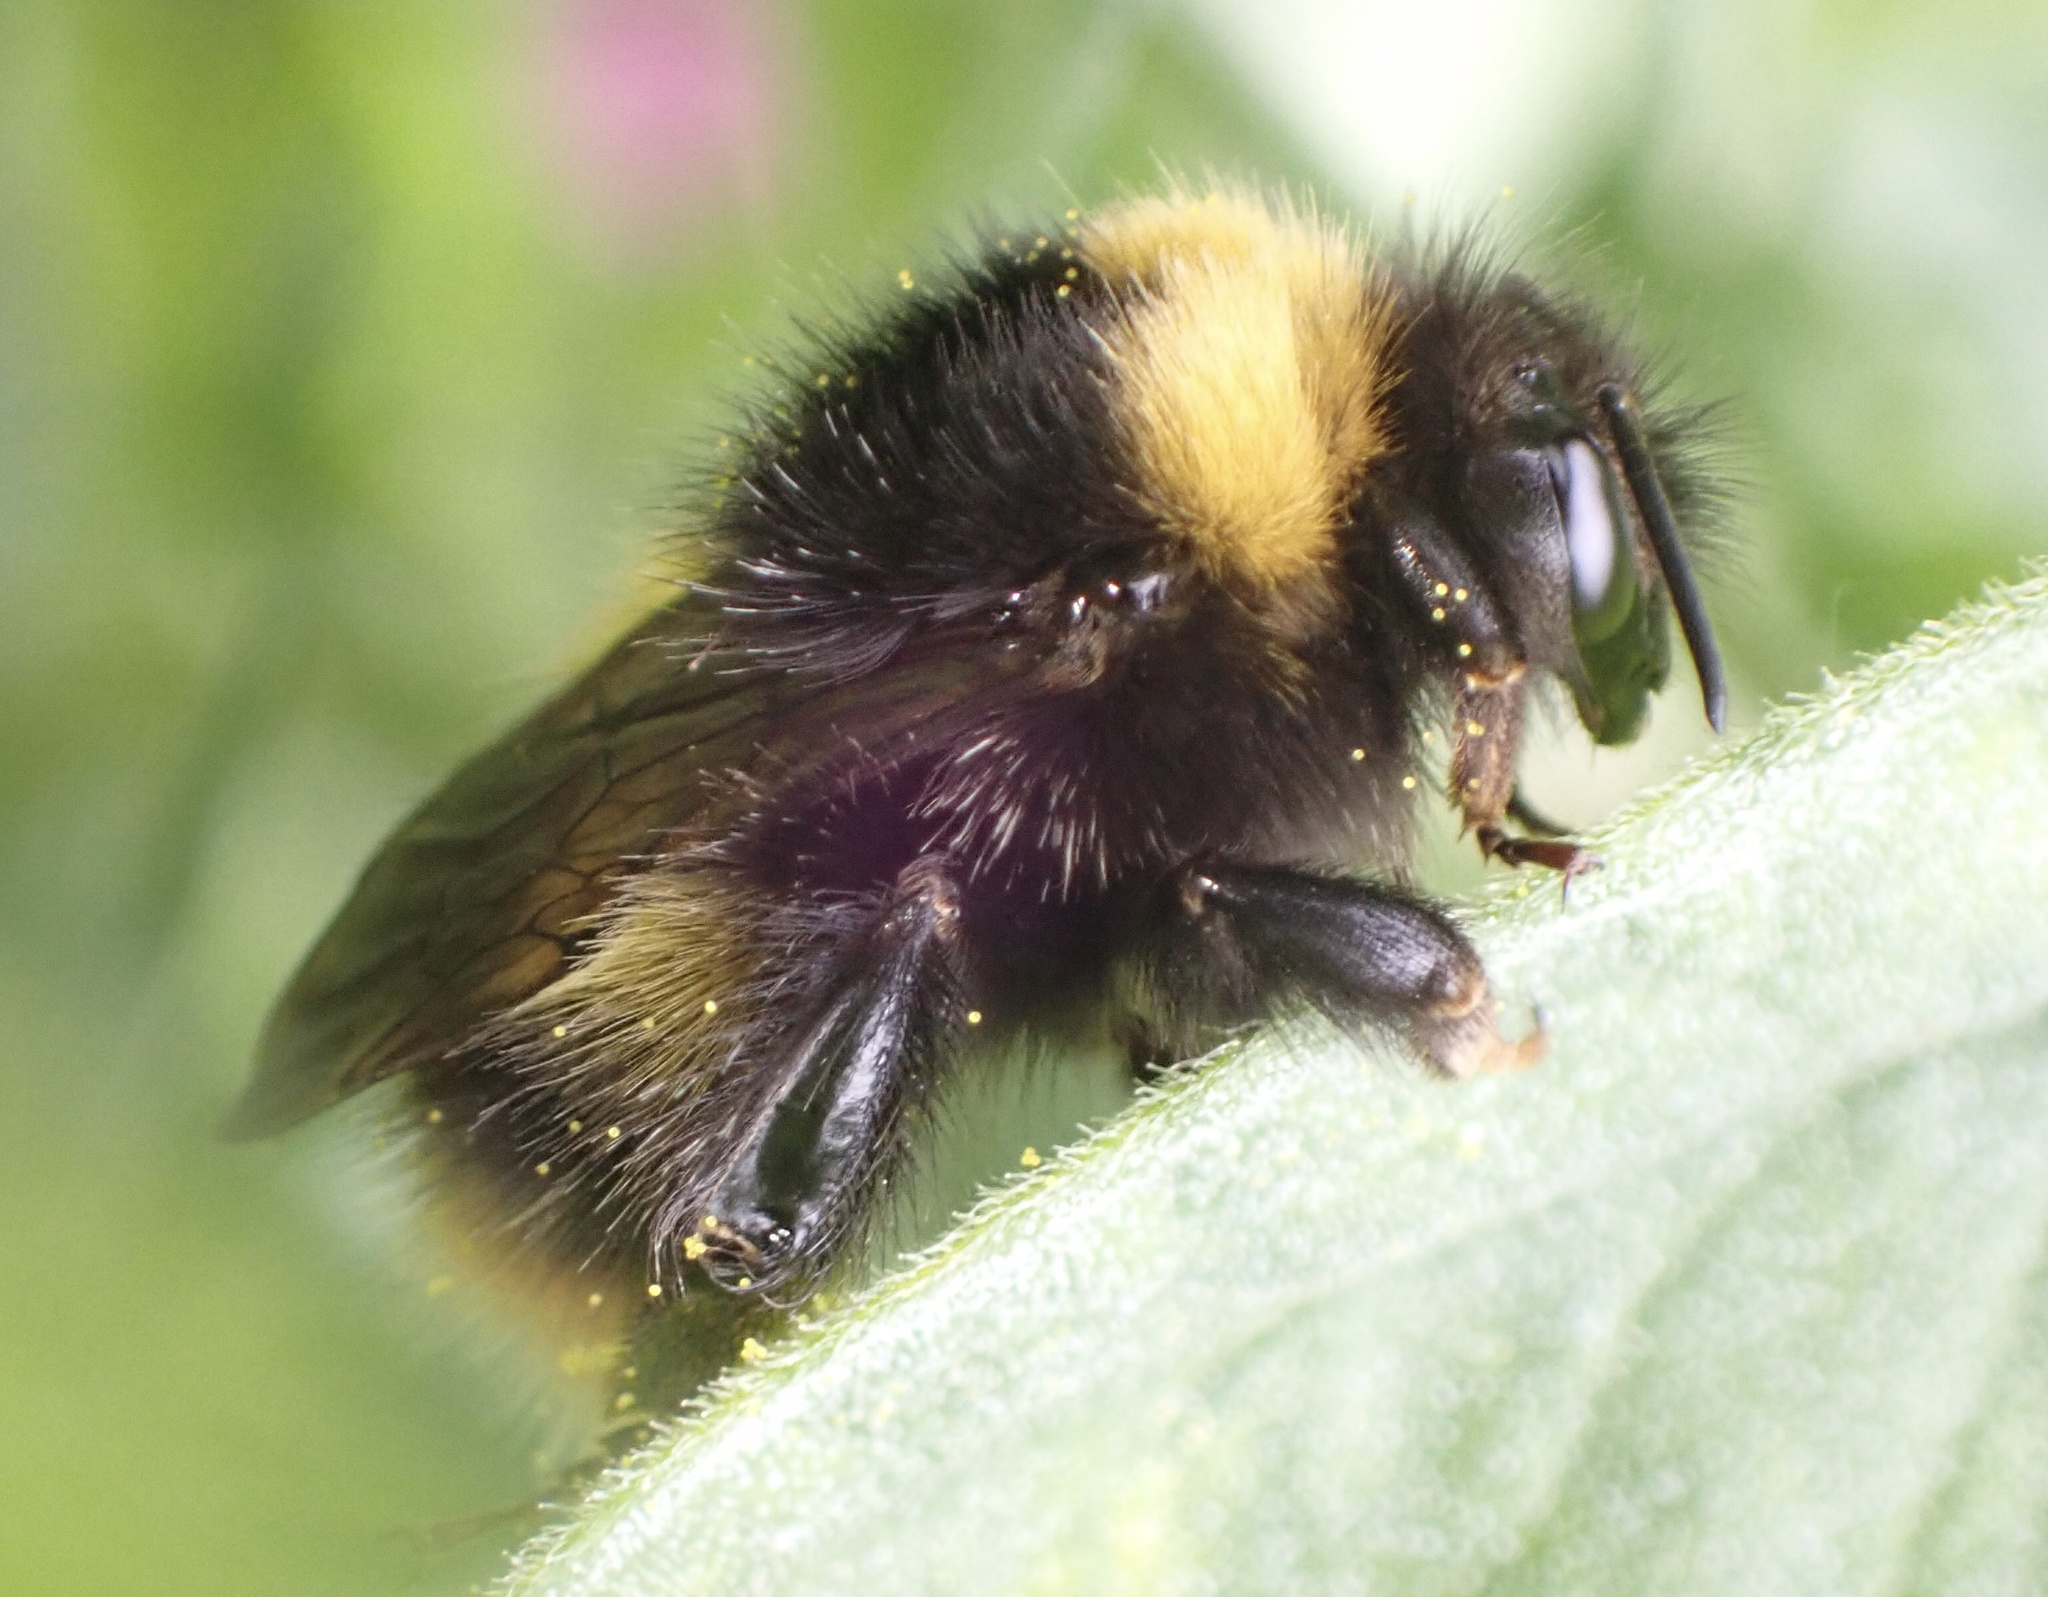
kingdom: Animalia
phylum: Arthropoda
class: Insecta
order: Hymenoptera
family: Apidae
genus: Bombus
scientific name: Bombus pratorum
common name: Early humble-bee
